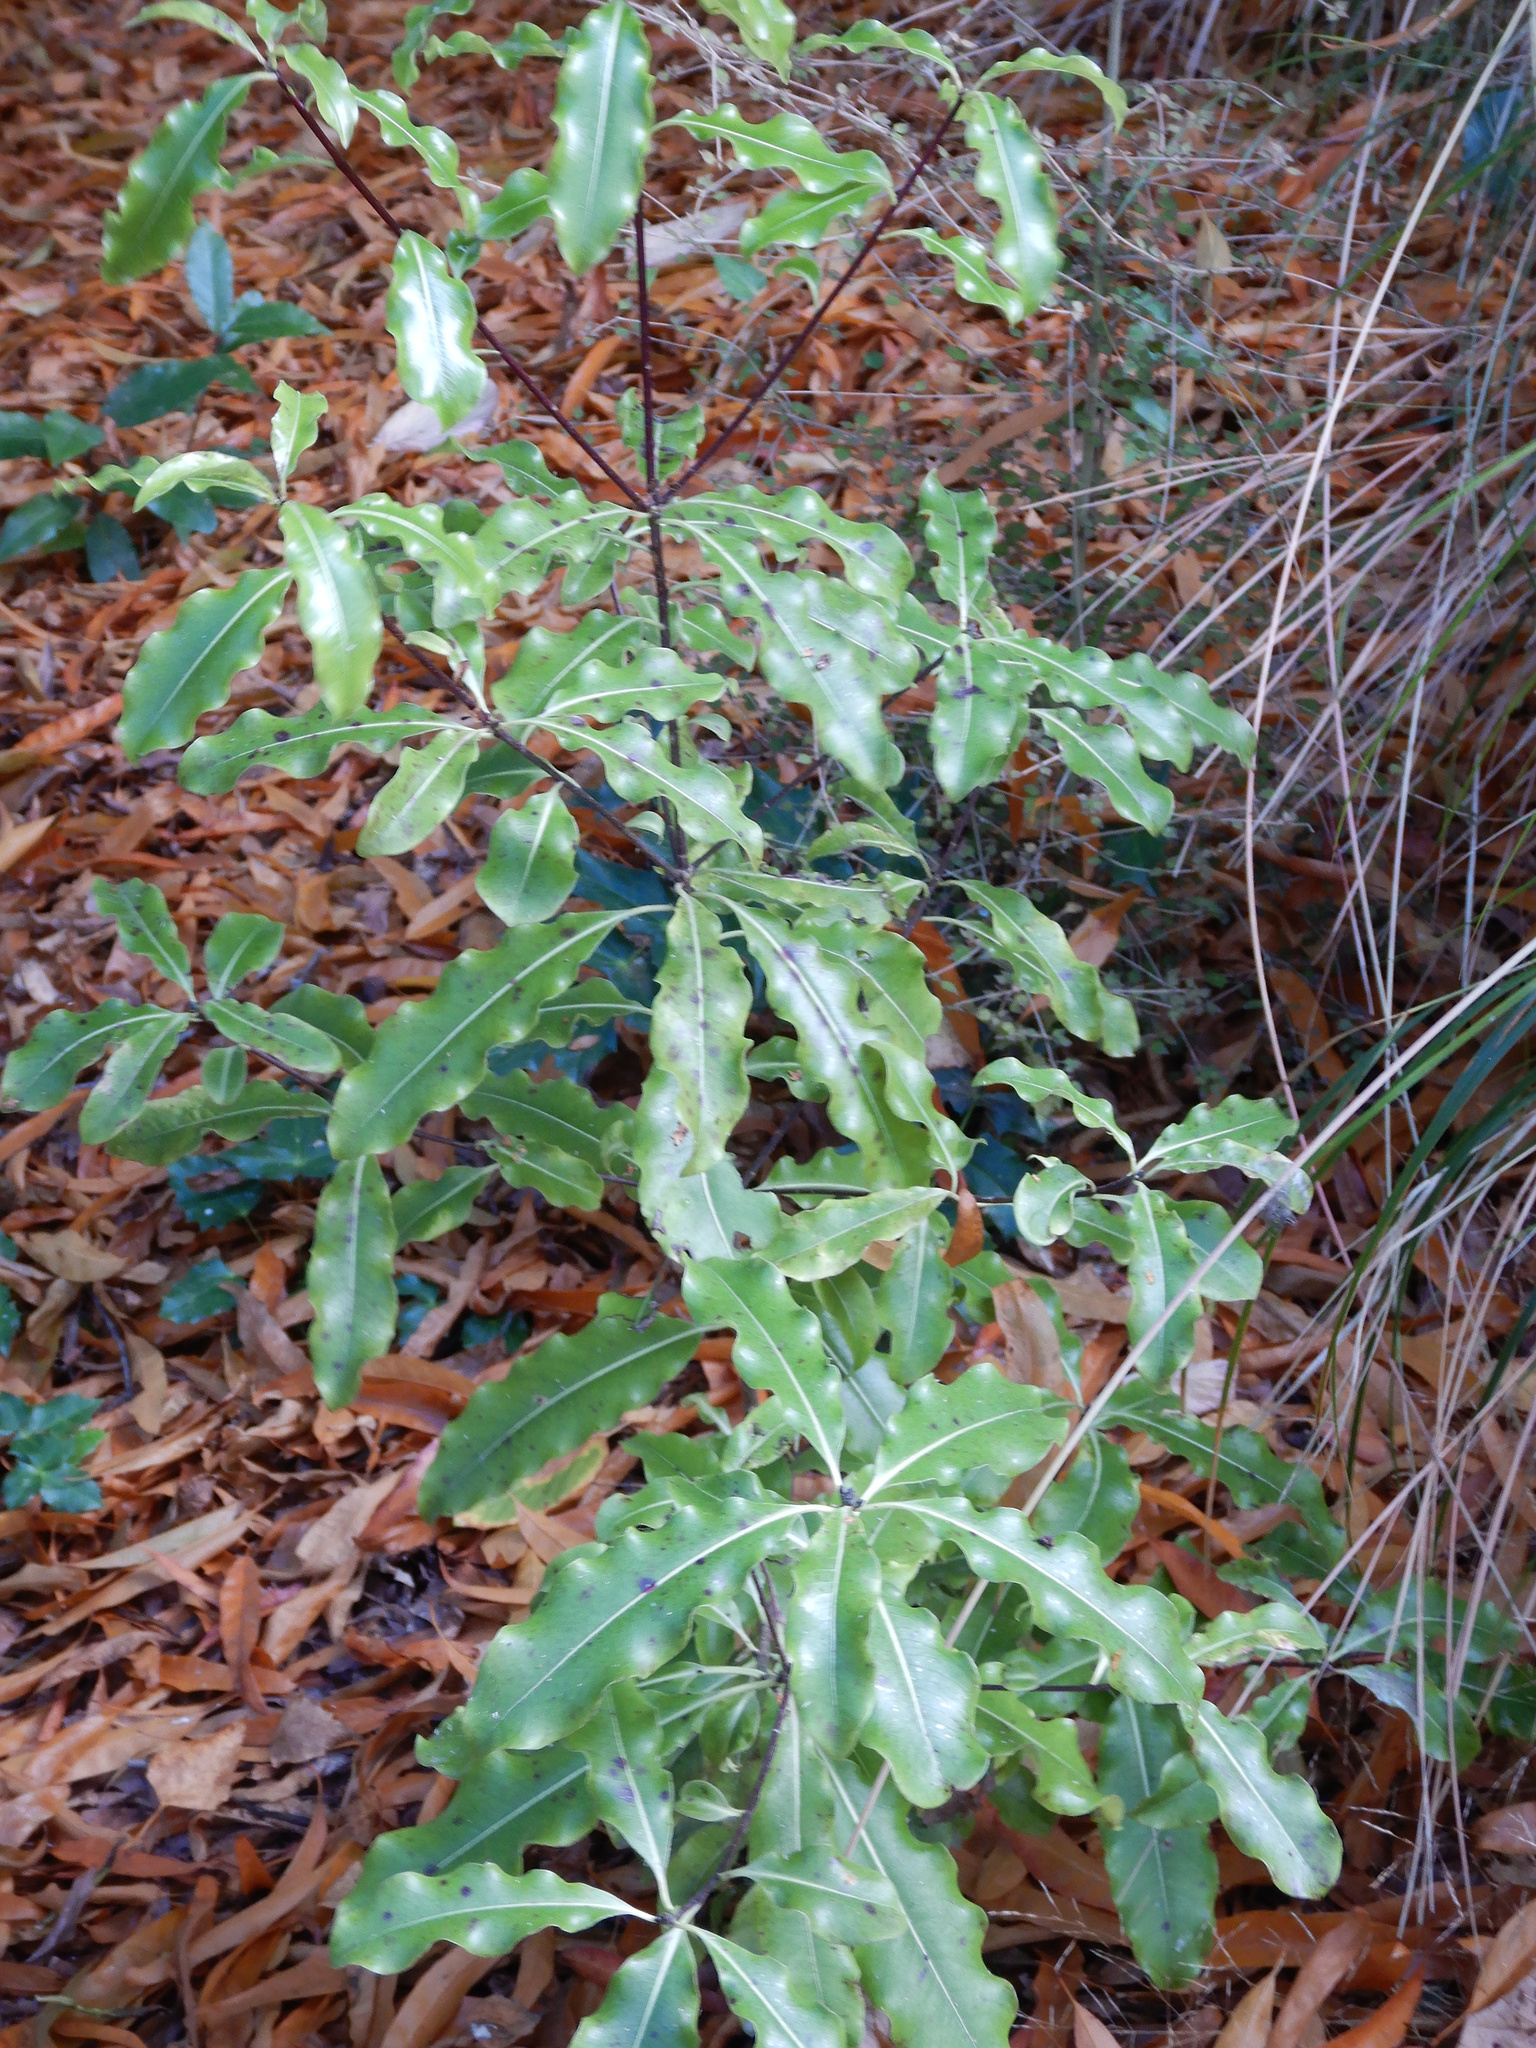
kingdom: Plantae
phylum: Tracheophyta
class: Magnoliopsida
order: Apiales
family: Pittosporaceae
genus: Pittosporum
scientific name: Pittosporum eugenioides
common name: Lemonwood
